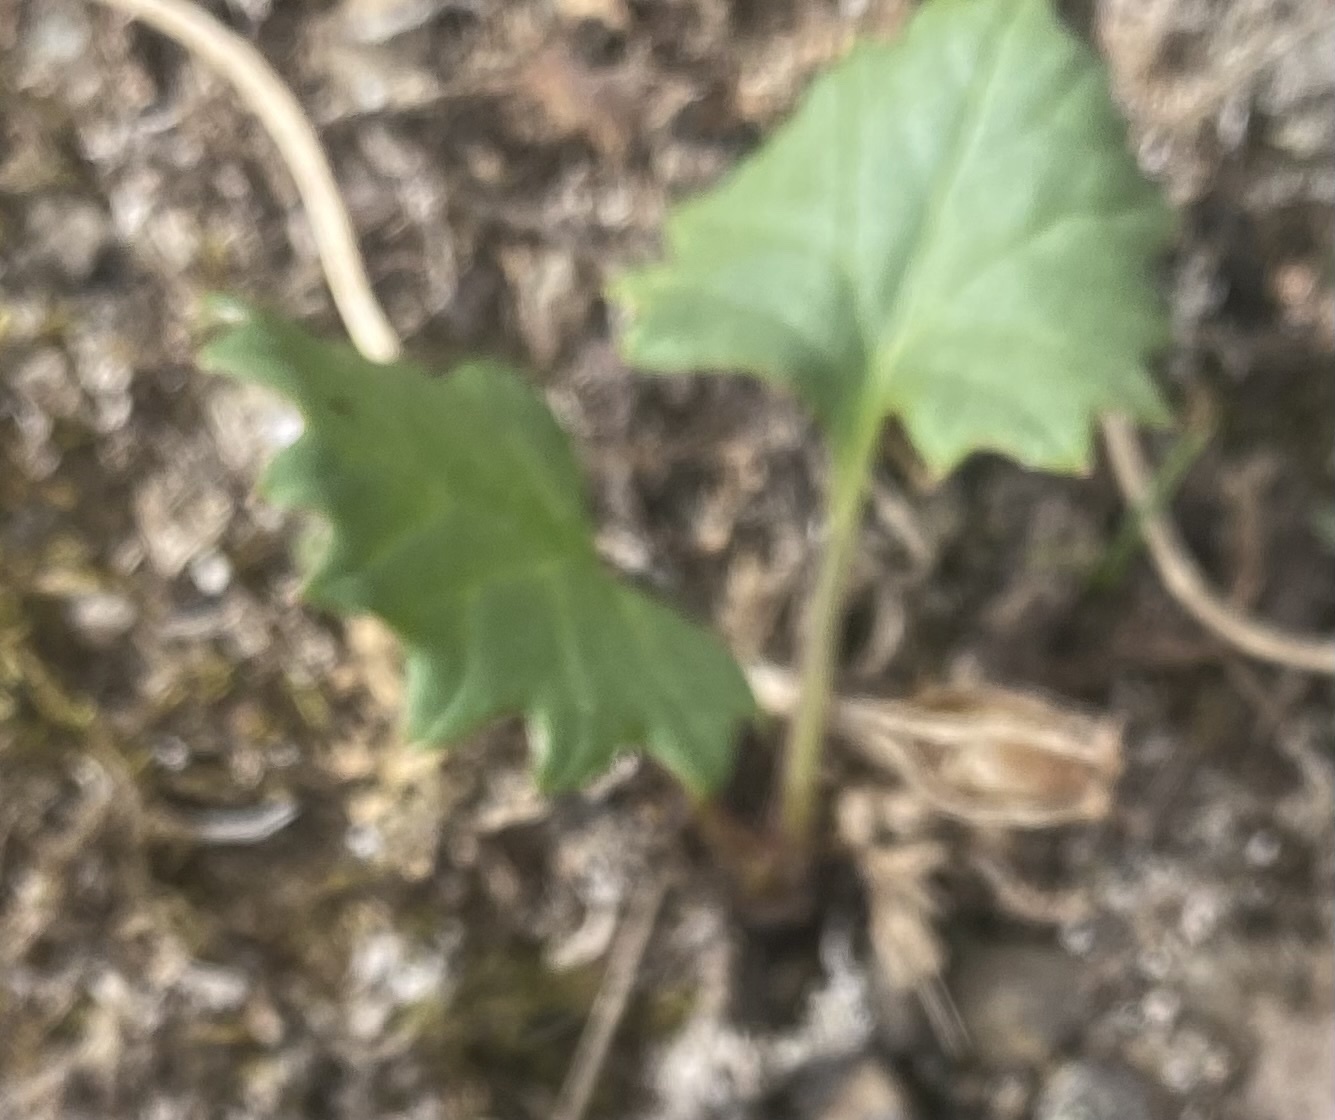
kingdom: Plantae
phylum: Tracheophyta
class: Magnoliopsida
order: Asterales
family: Asteraceae
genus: Endocellion
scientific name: Endocellion glaciale
